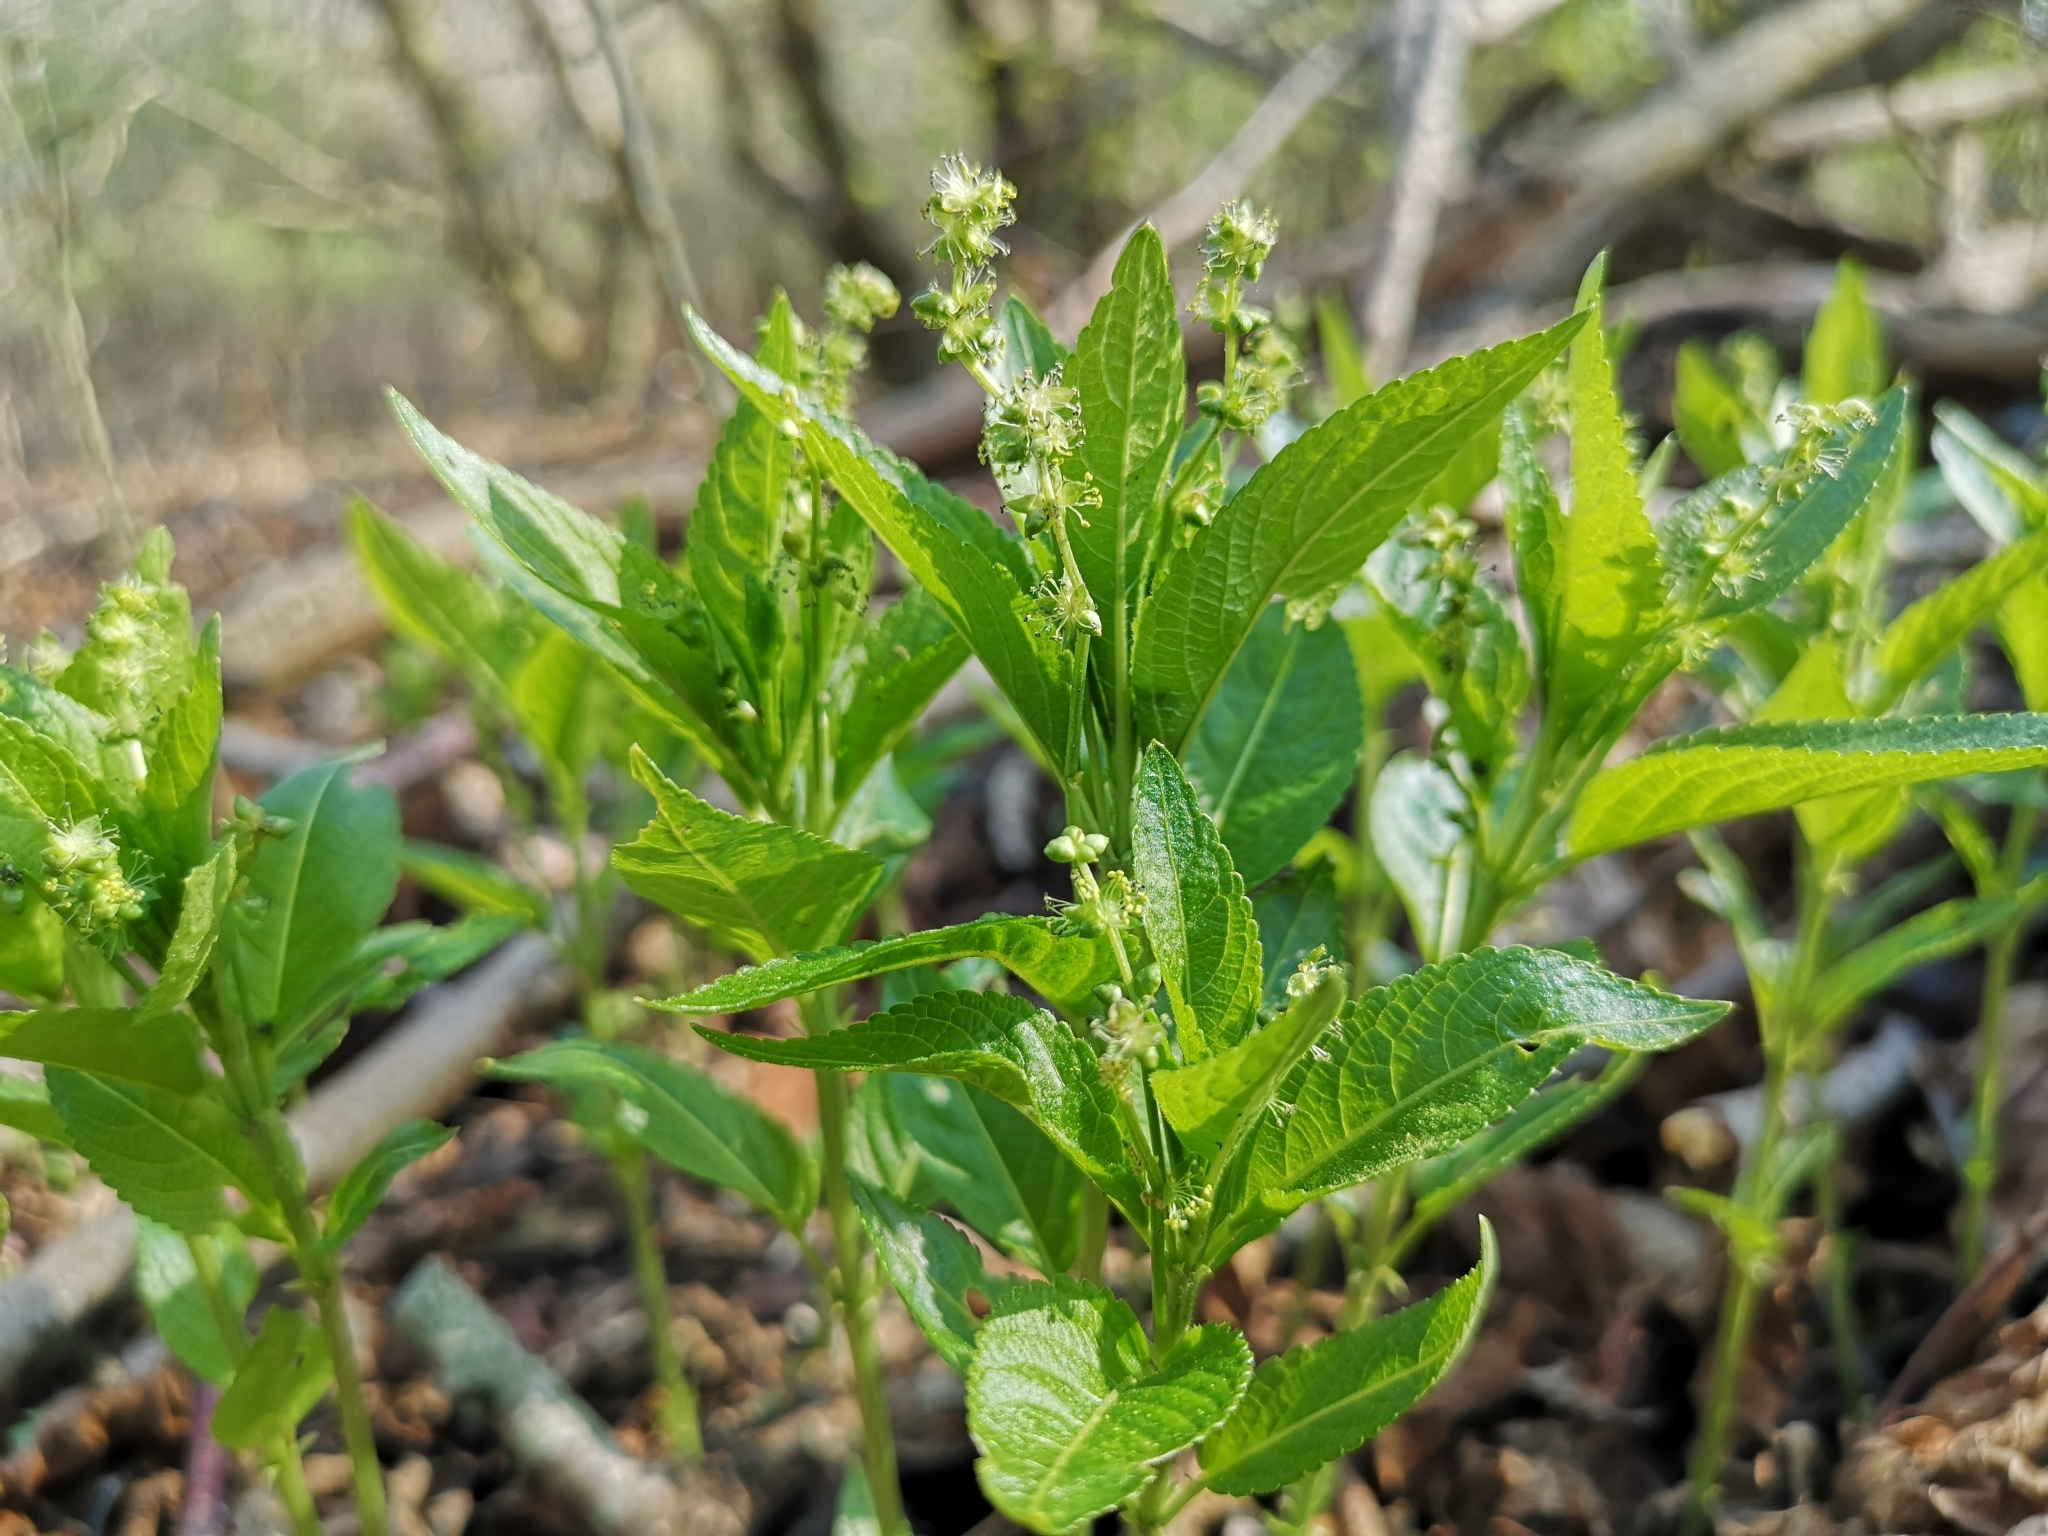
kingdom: Plantae
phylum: Tracheophyta
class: Magnoliopsida
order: Malpighiales
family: Euphorbiaceae
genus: Mercurialis
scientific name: Mercurialis perennis
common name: Dog mercury
